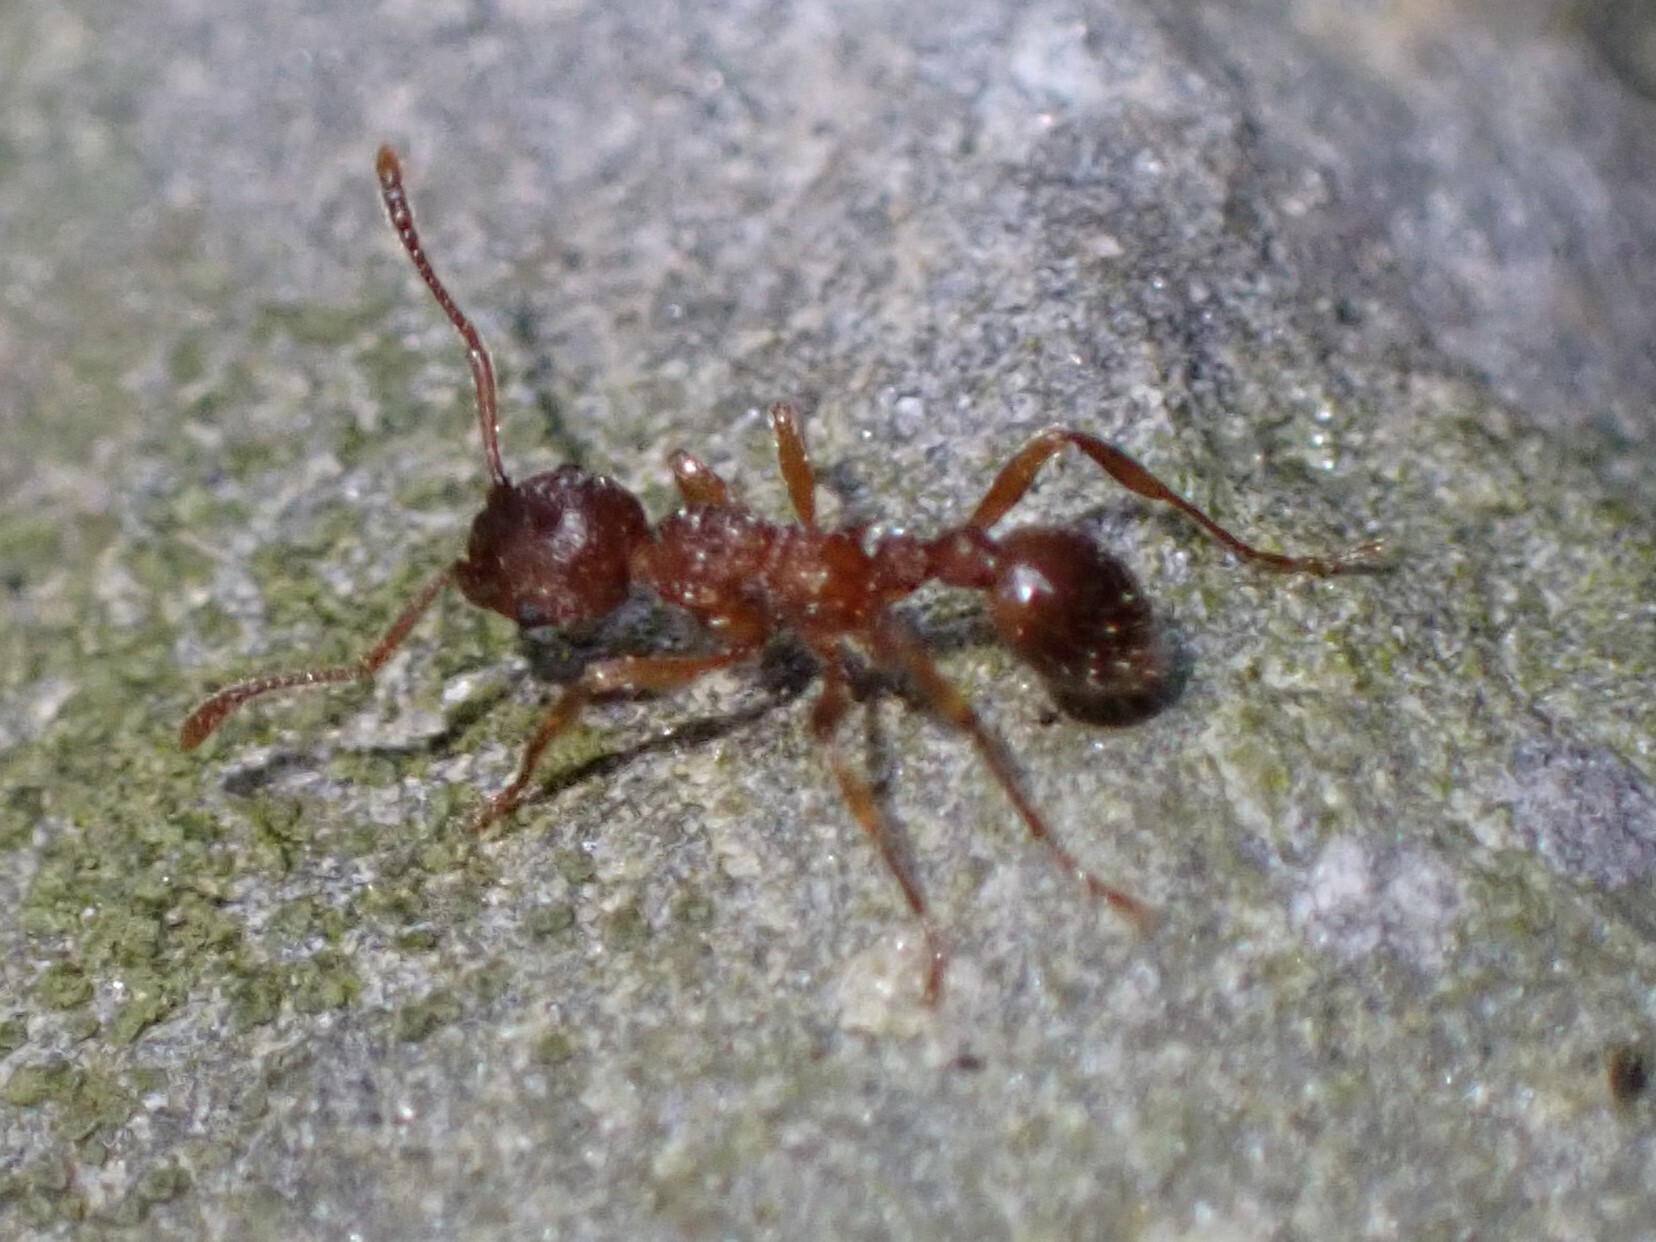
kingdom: Animalia
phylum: Arthropoda
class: Insecta
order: Hymenoptera
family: Formicidae
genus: Myrmica
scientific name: Myrmica
